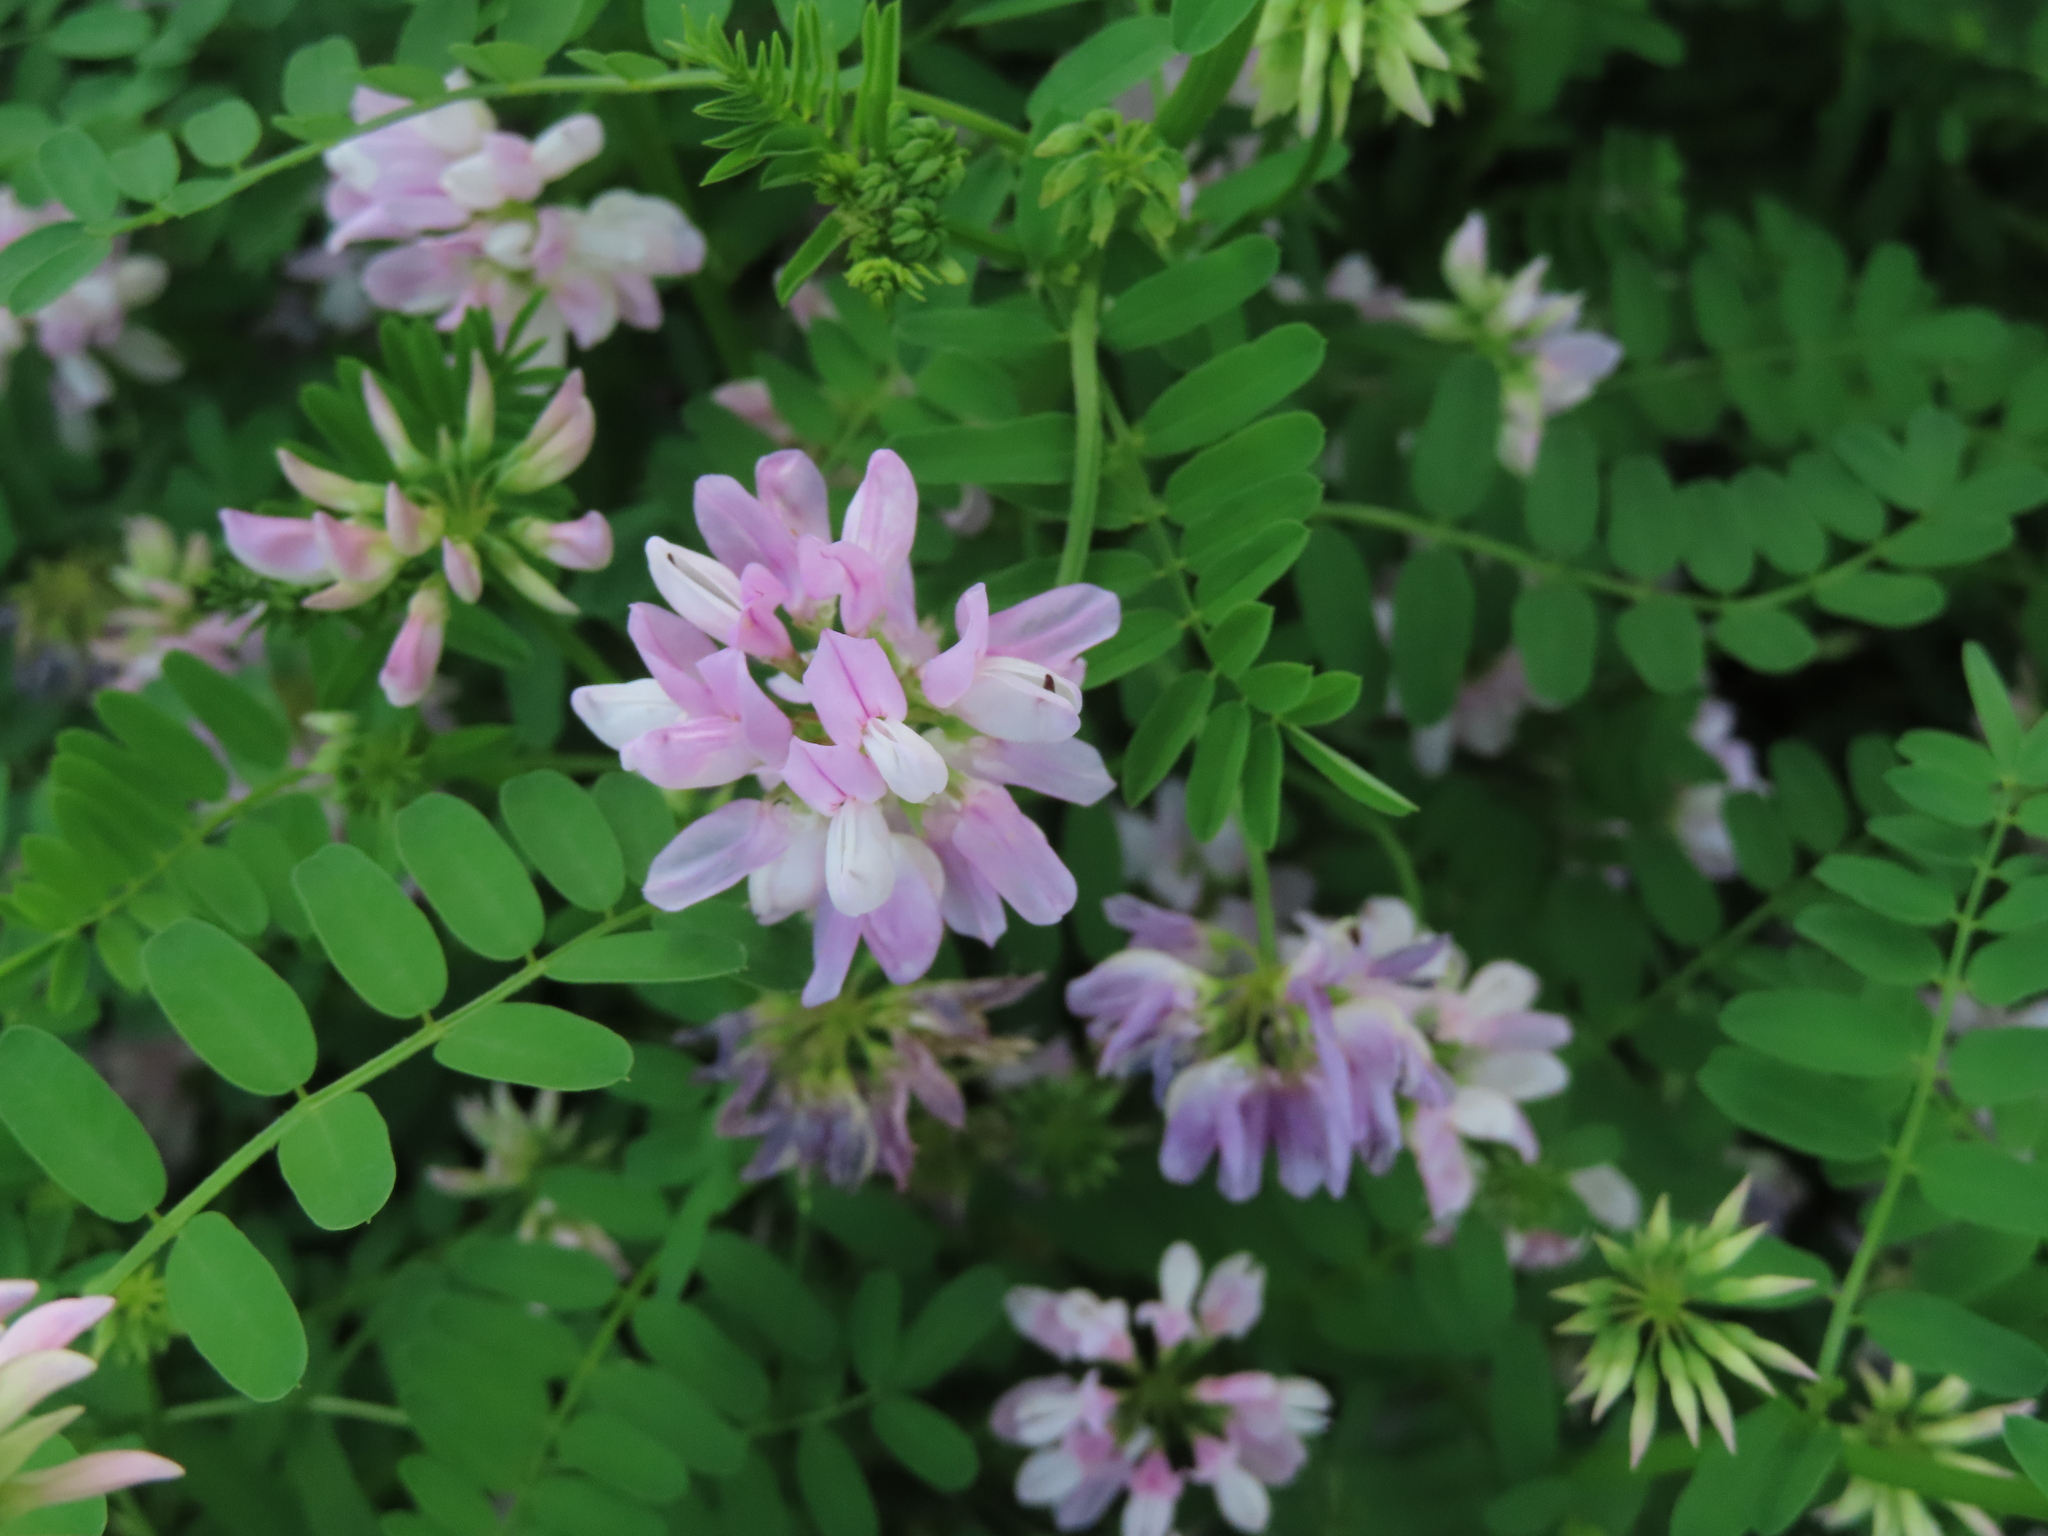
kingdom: Plantae
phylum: Tracheophyta
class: Magnoliopsida
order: Fabales
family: Fabaceae
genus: Coronilla
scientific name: Coronilla varia
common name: Crownvetch
